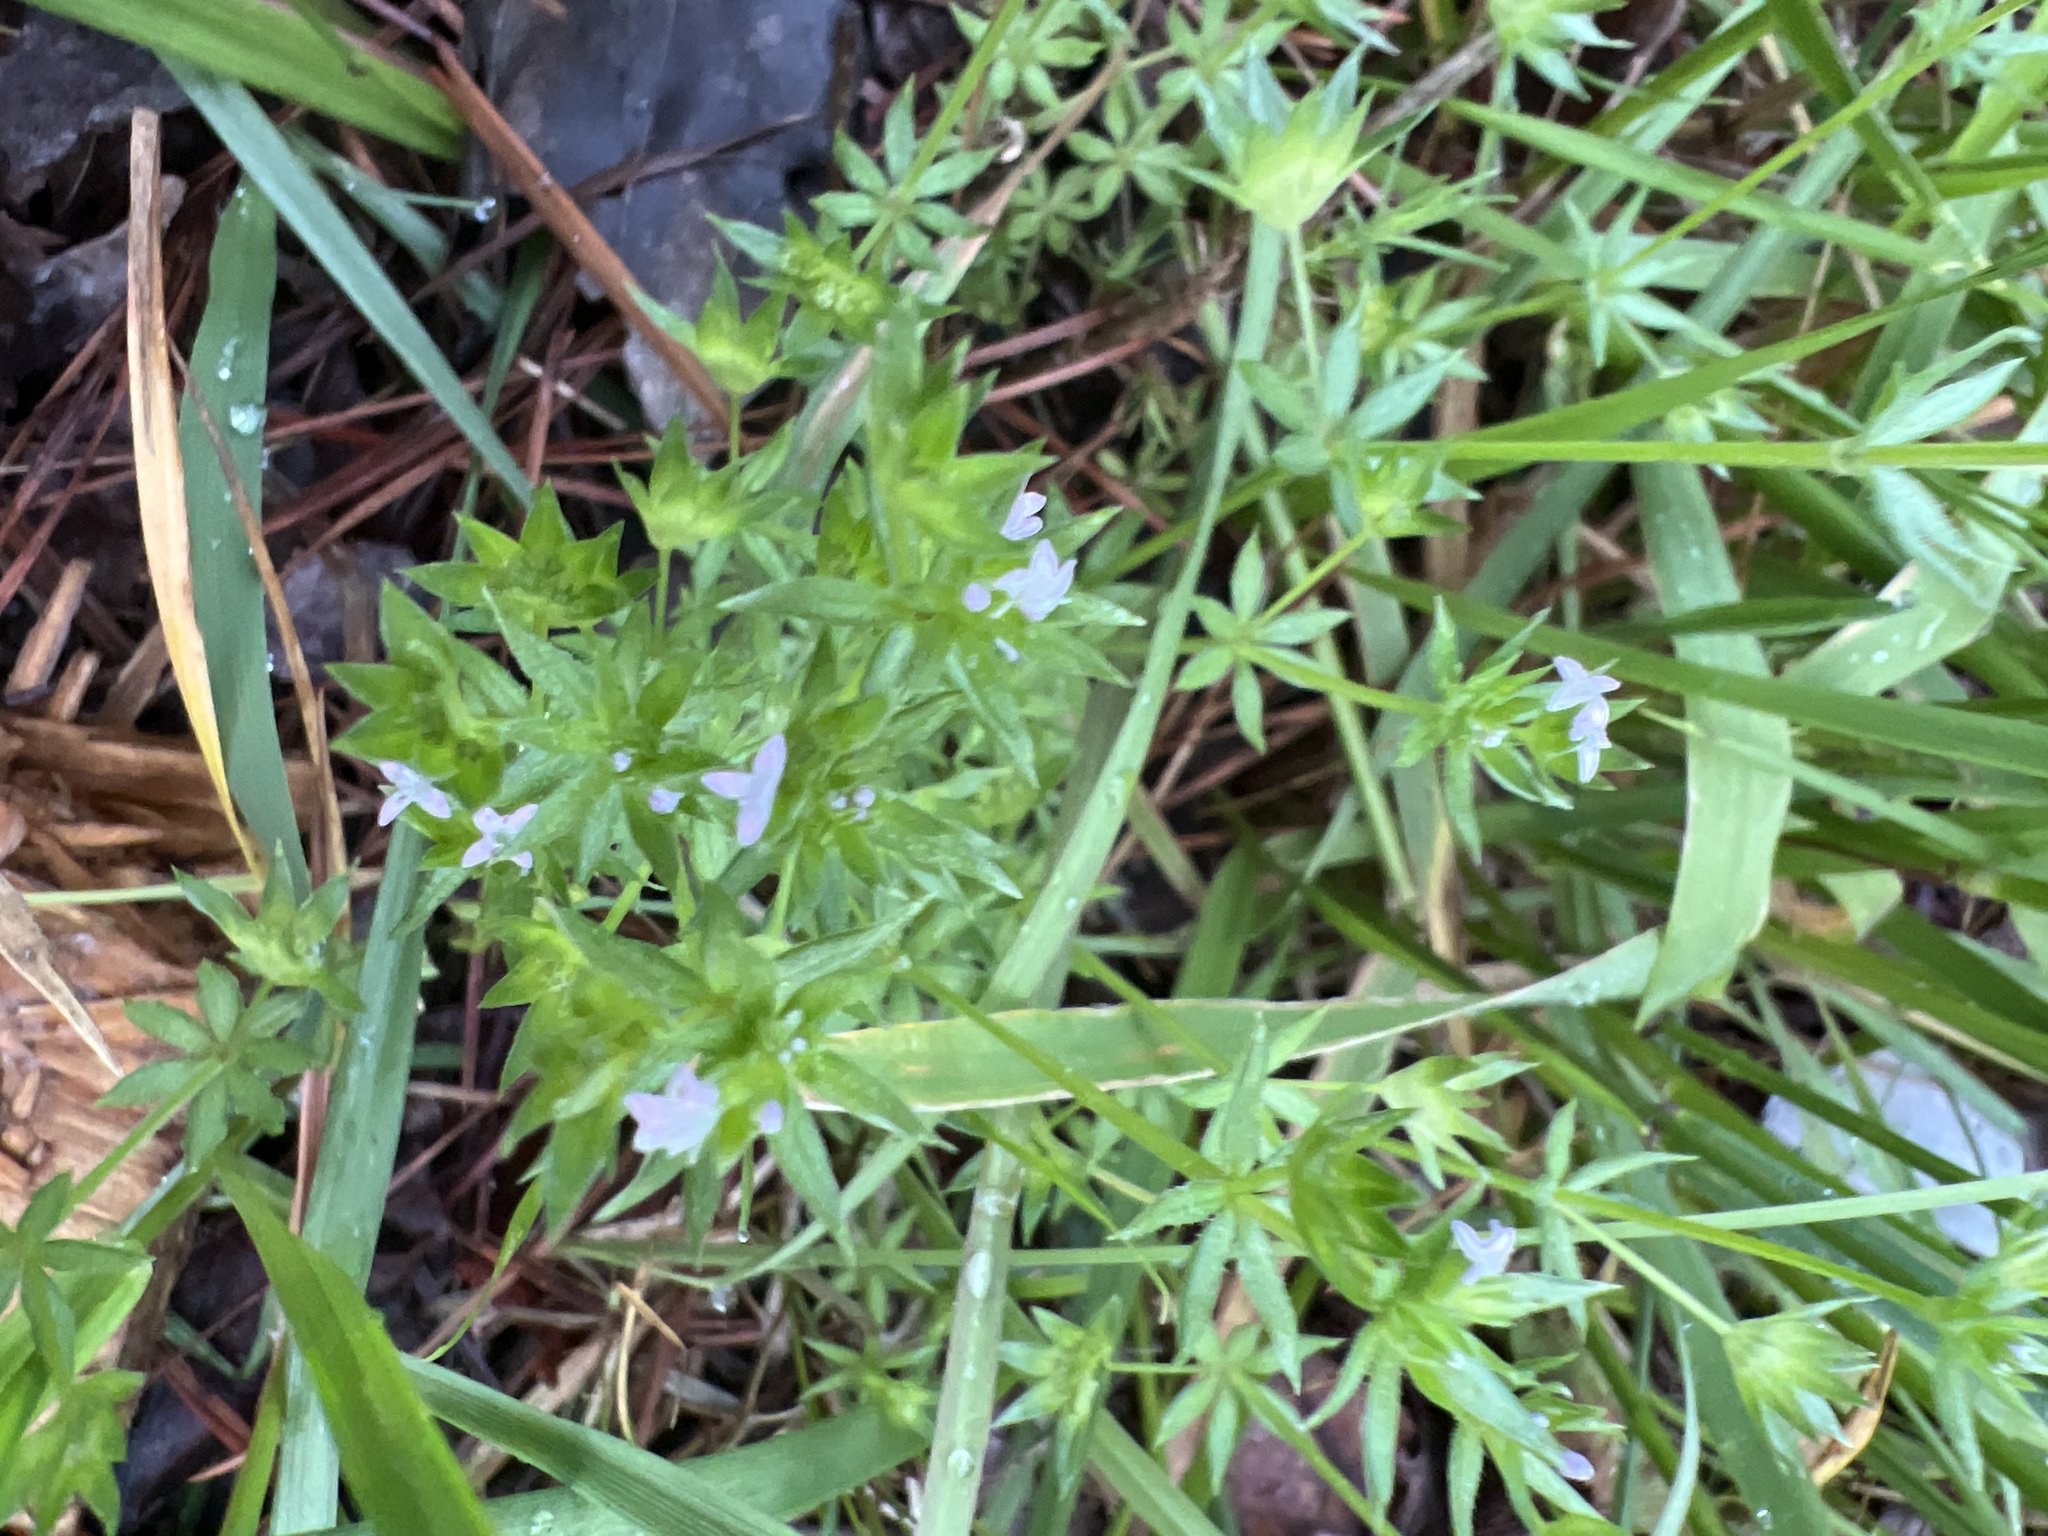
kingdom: Plantae
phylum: Tracheophyta
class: Magnoliopsida
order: Gentianales
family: Rubiaceae
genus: Sherardia
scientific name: Sherardia arvensis
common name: Field madder
